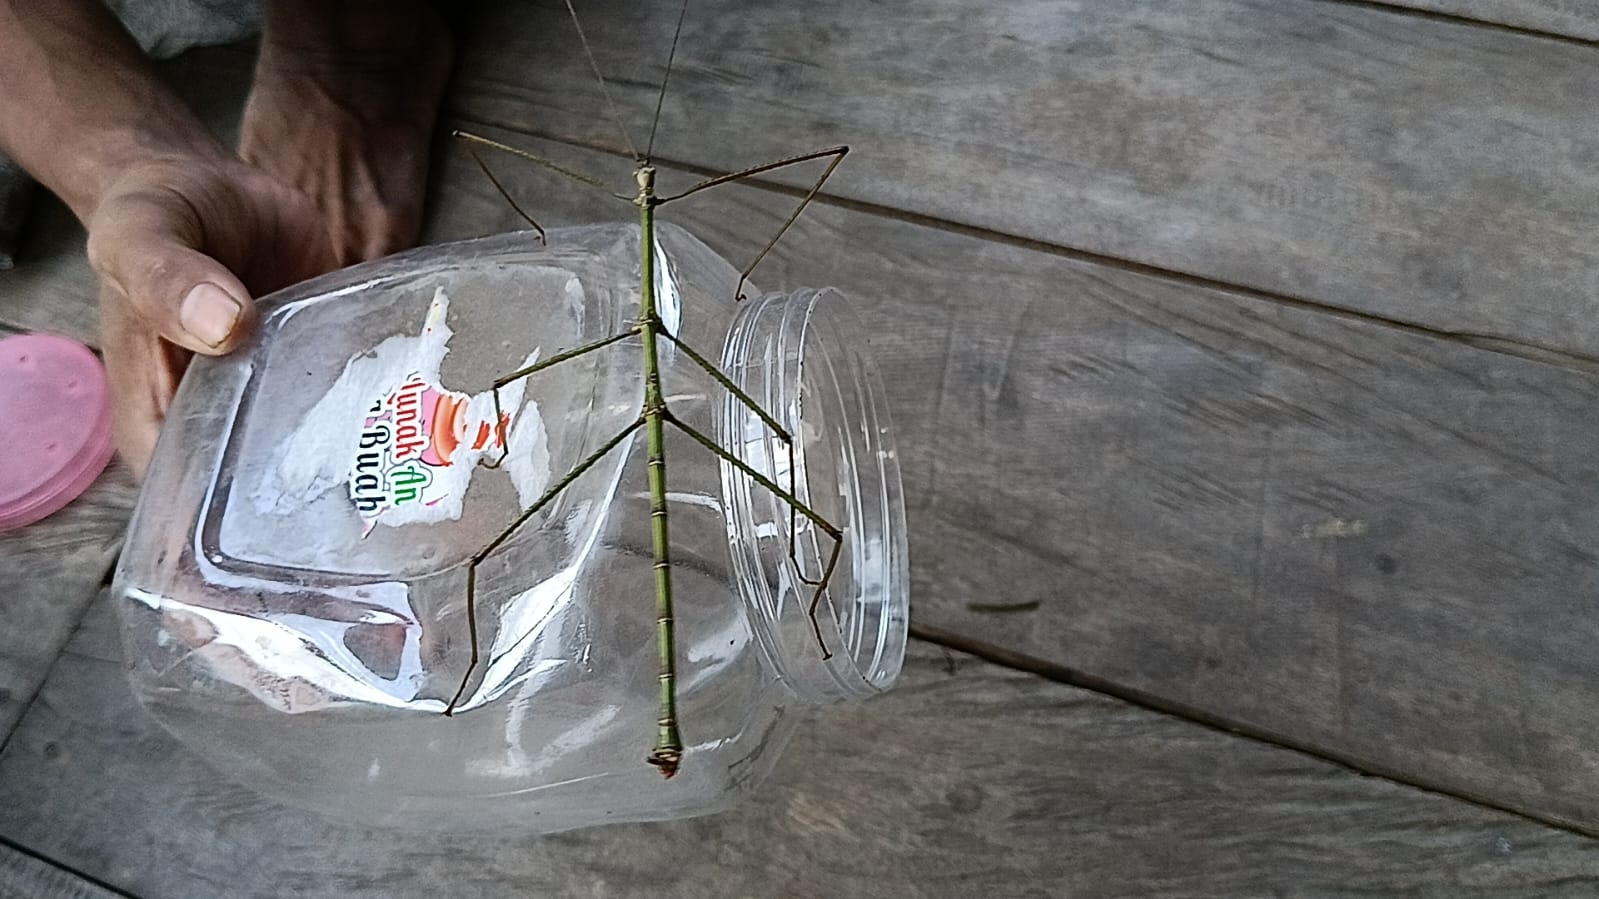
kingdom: Animalia
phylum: Arthropoda
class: Insecta
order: Phasmida
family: Phasmatidae
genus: Nesiophasma
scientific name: Nesiophasma spinulosum
